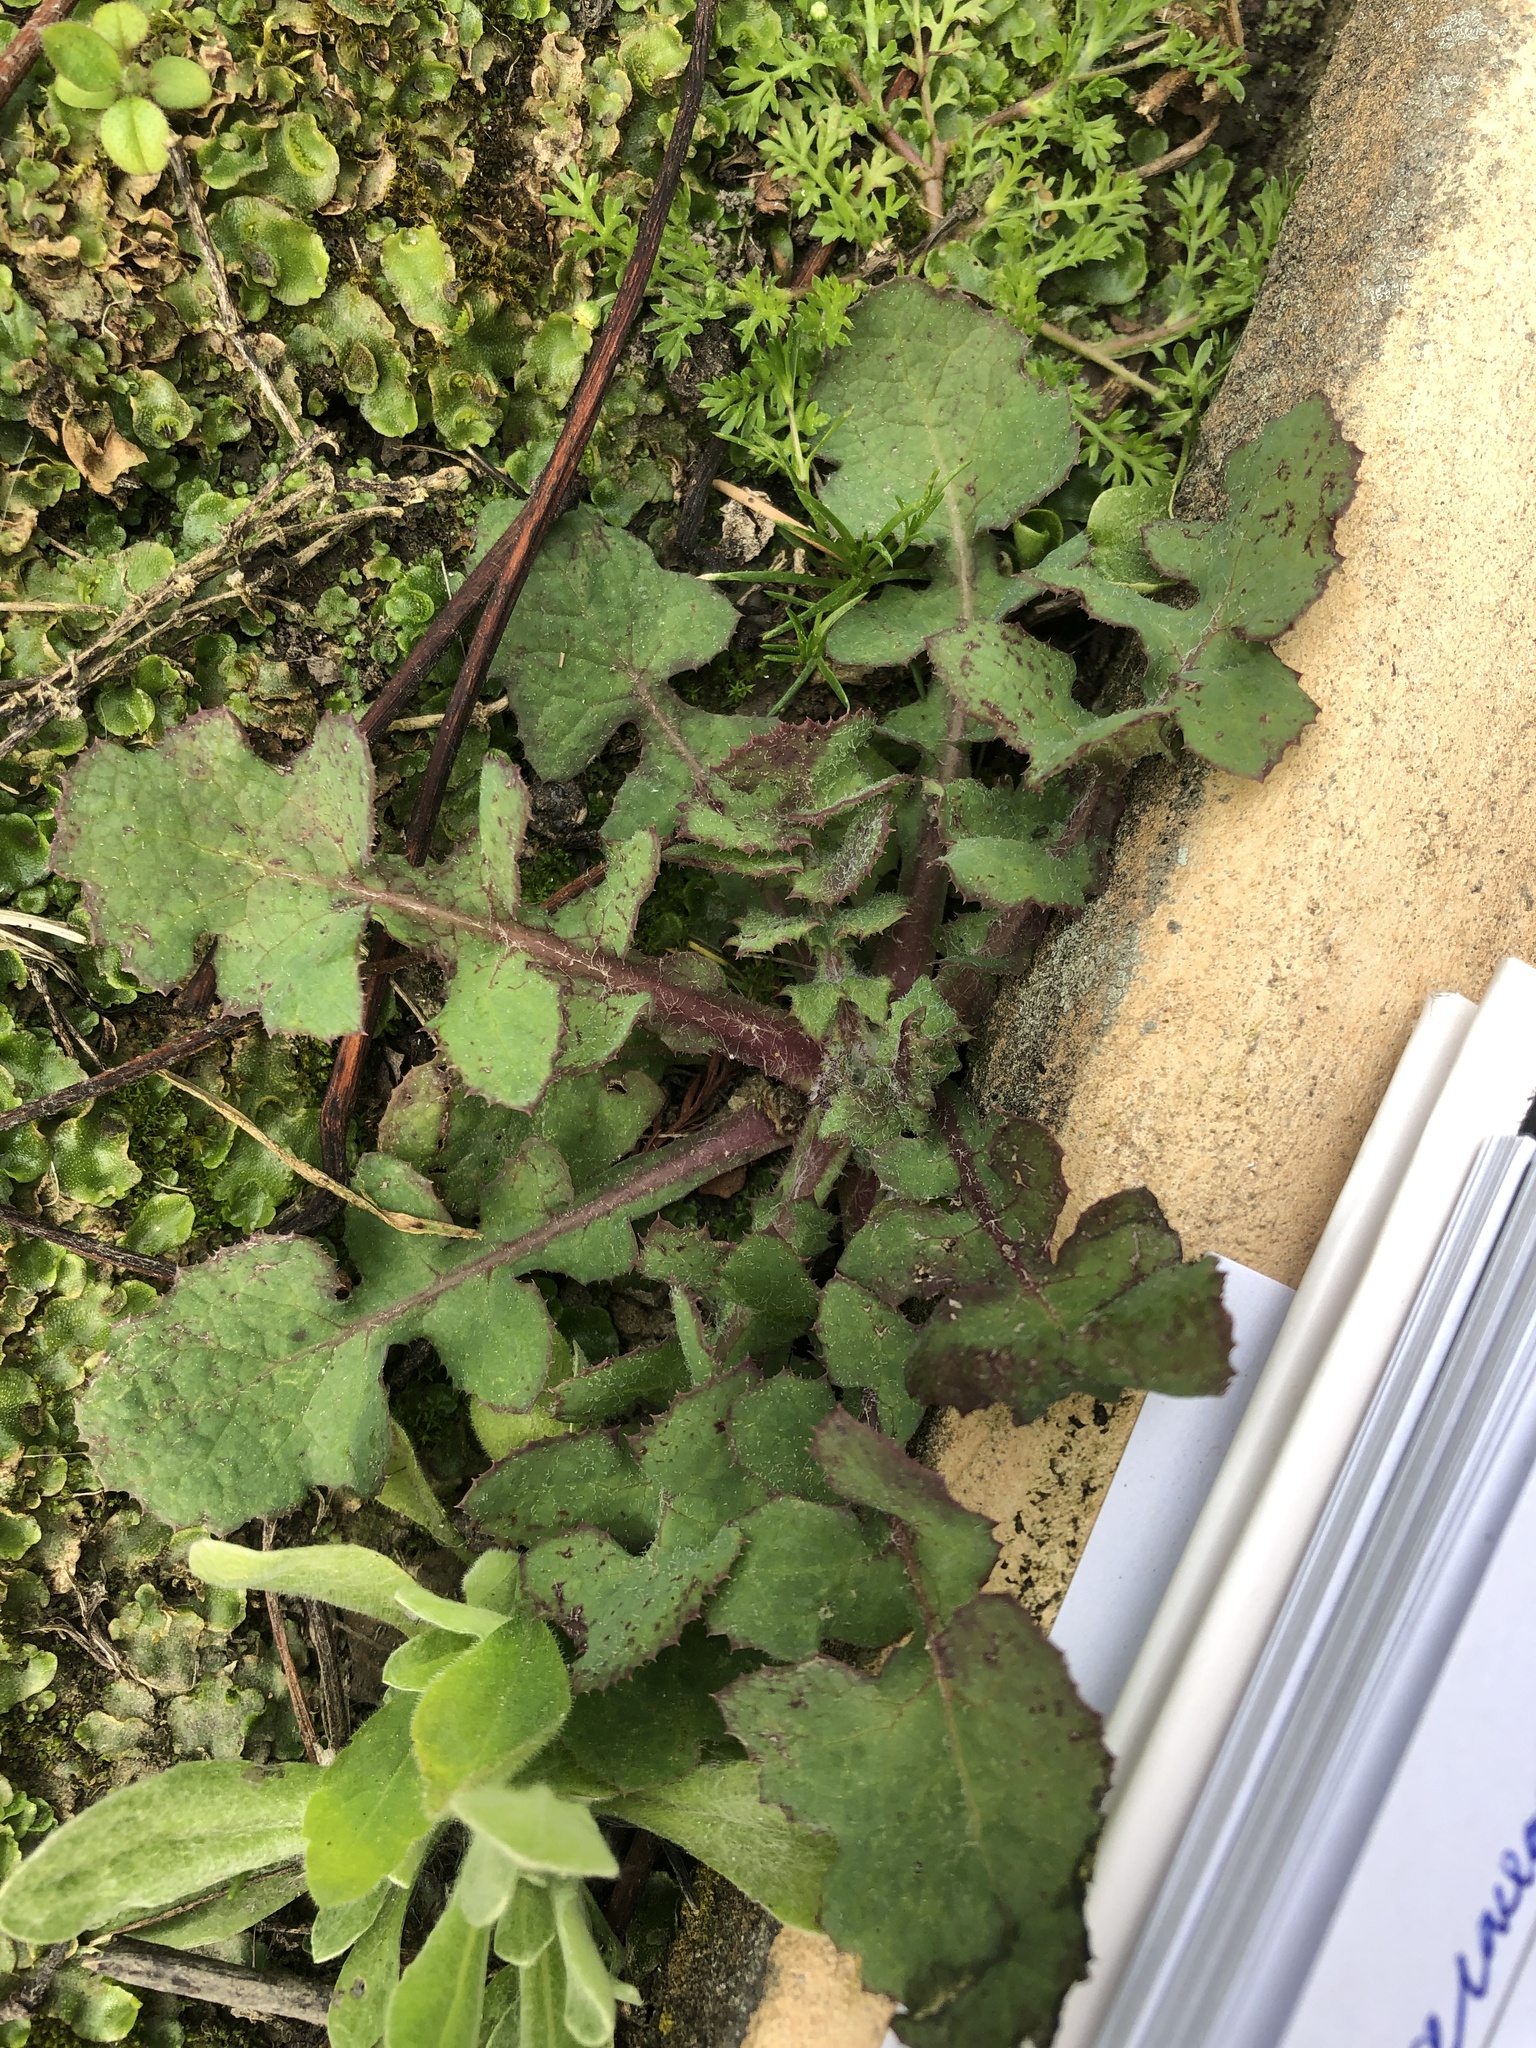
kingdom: Plantae
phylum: Tracheophyta
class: Magnoliopsida
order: Asterales
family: Asteraceae
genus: Sonchus
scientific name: Sonchus oleraceus
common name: Common sowthistle
